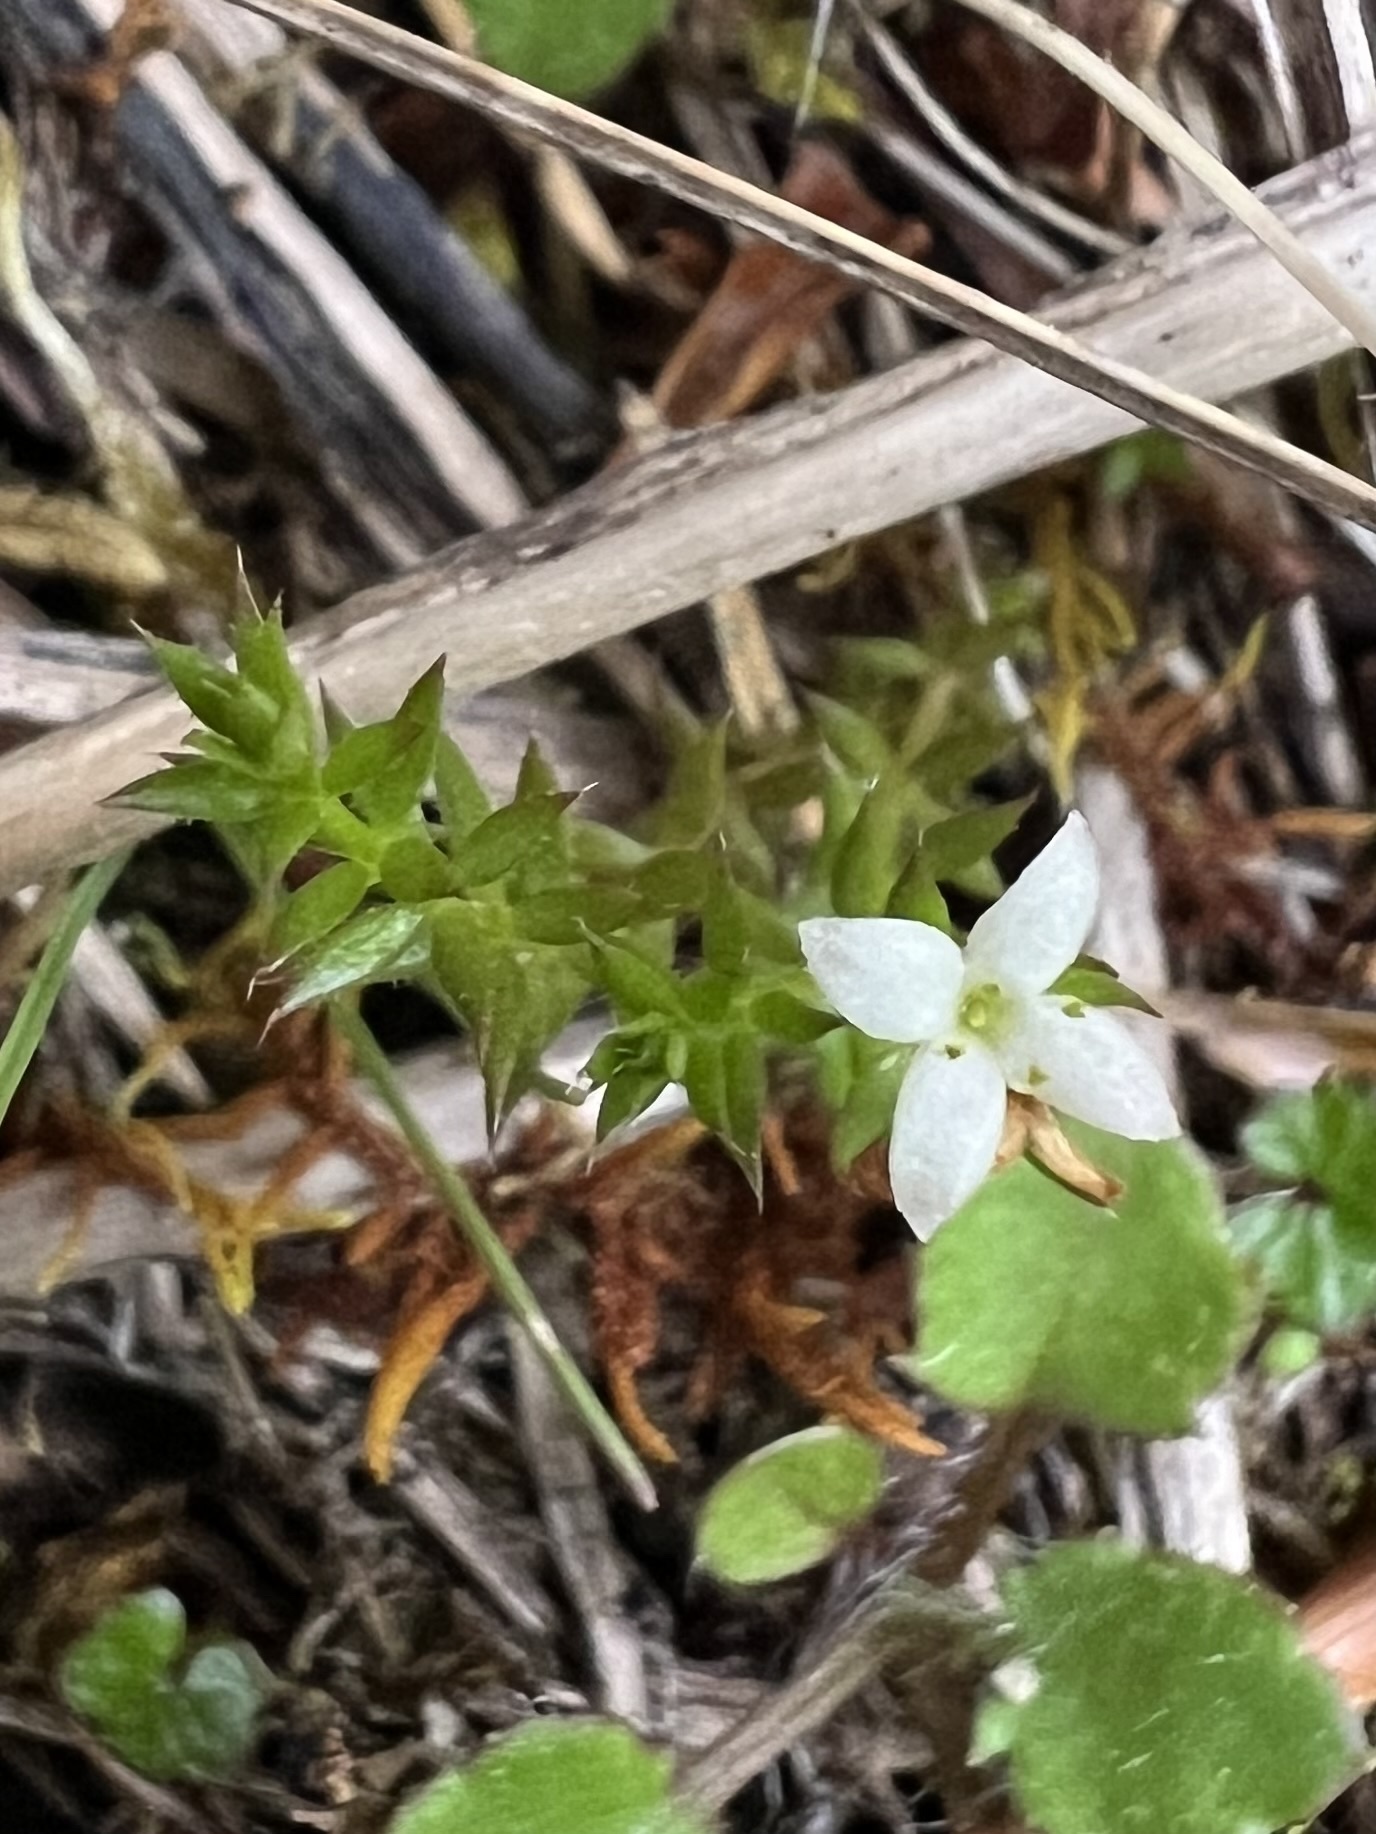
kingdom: Plantae
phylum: Tracheophyta
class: Magnoliopsida
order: Gentianales
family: Rubiaceae
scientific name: Rubiaceae
